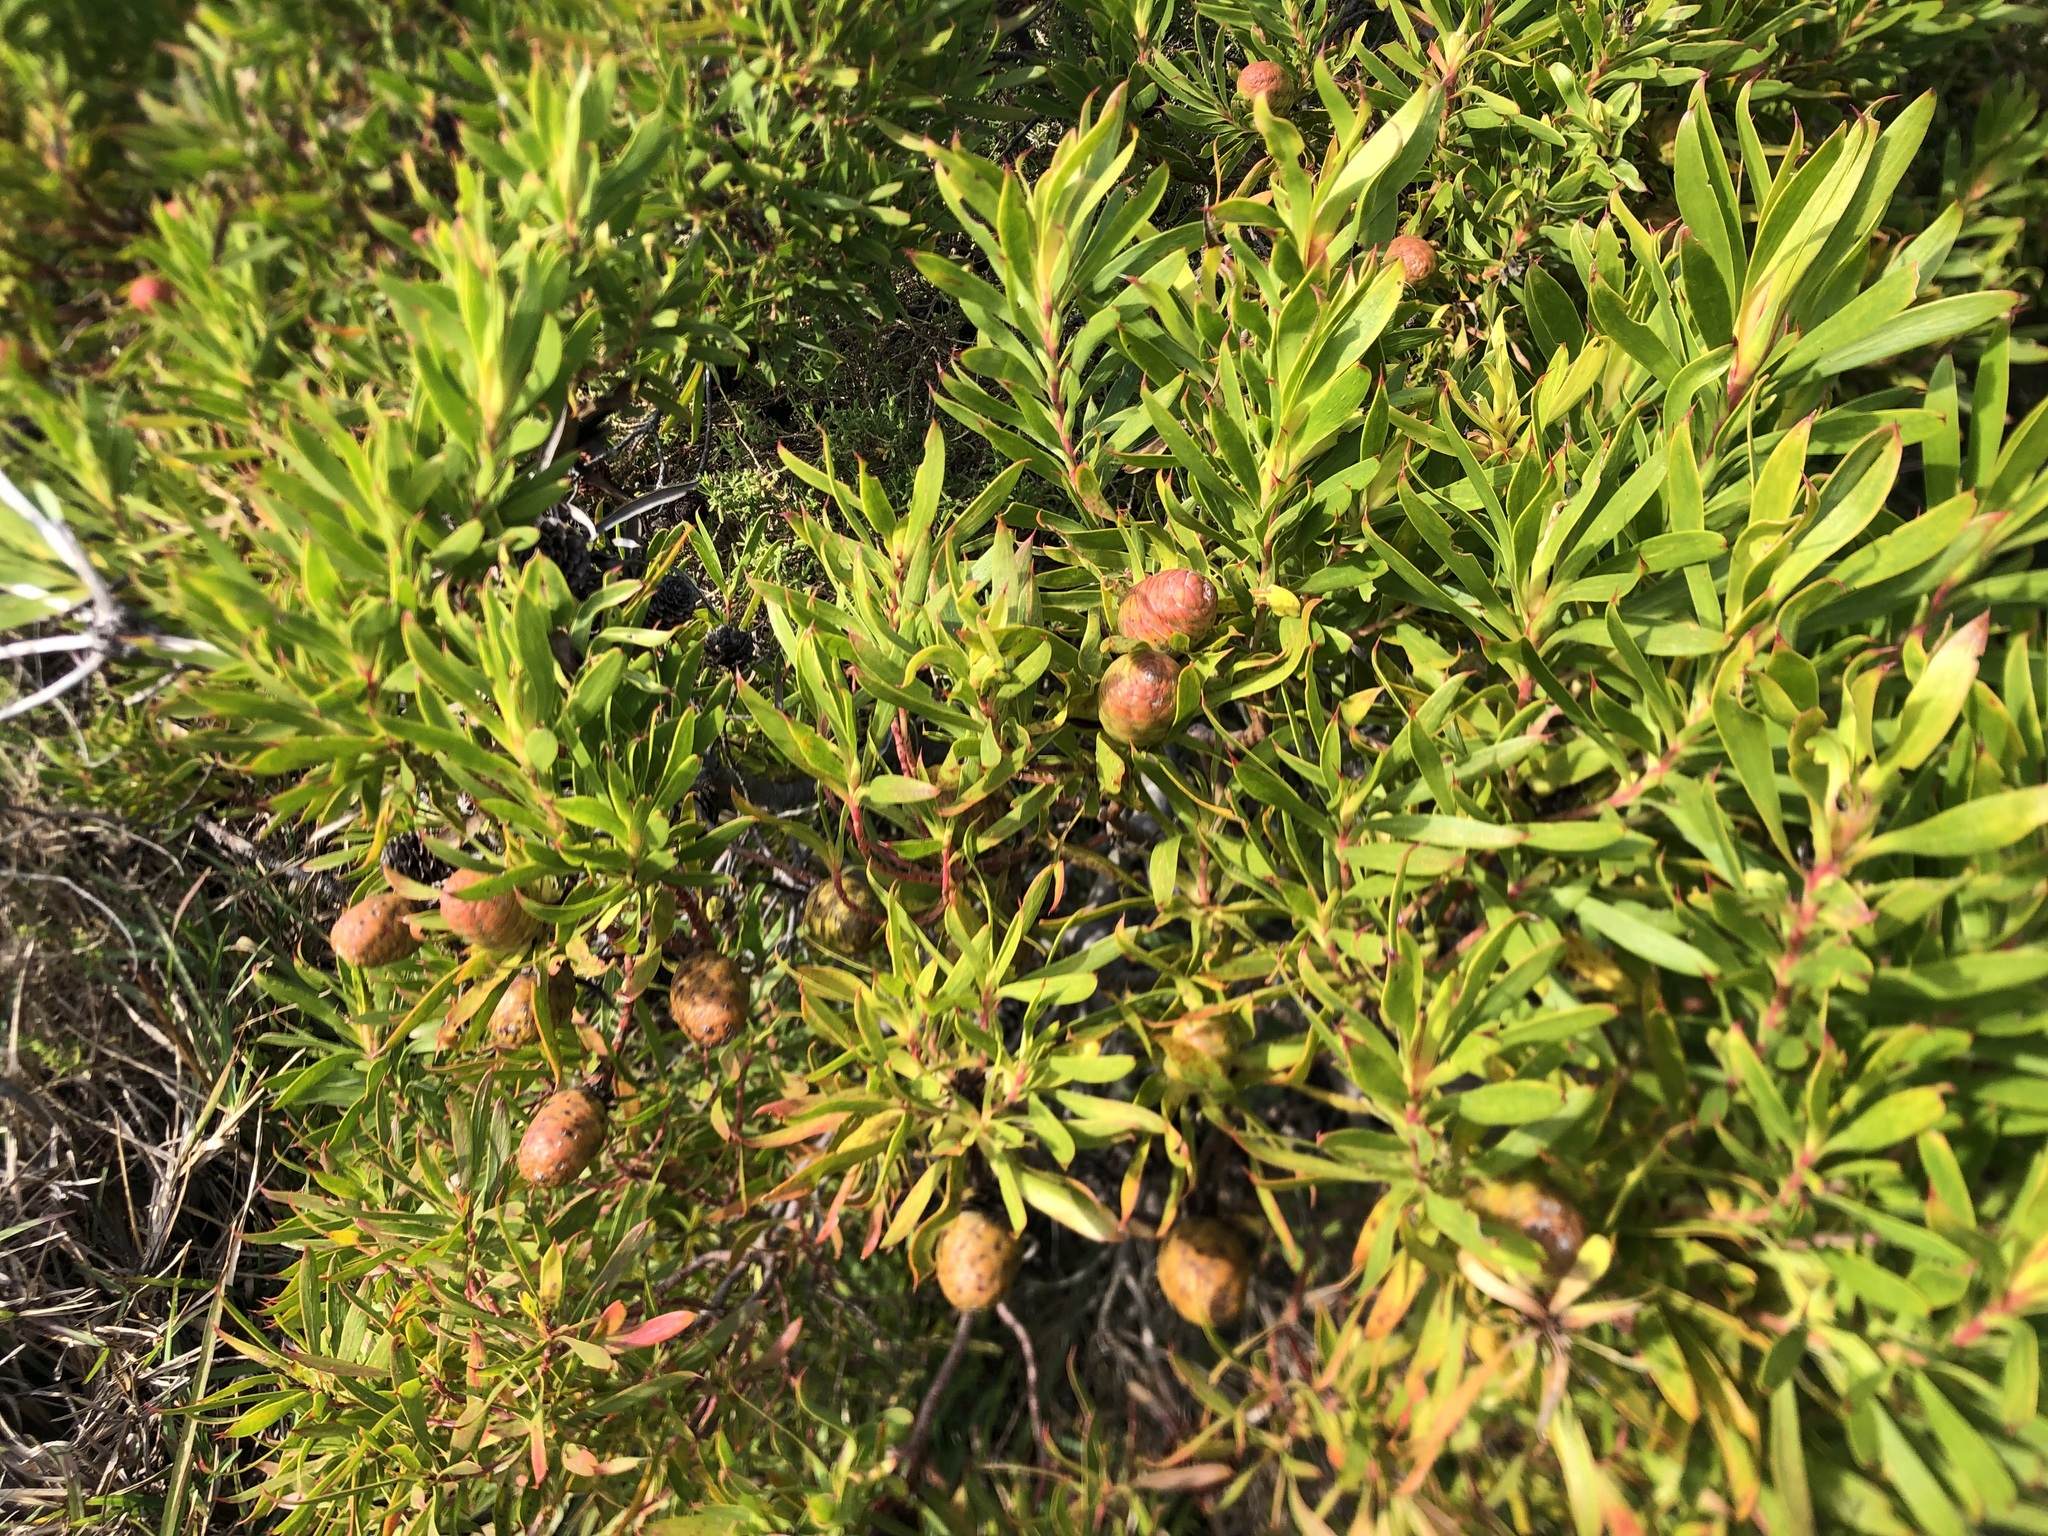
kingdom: Plantae
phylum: Tracheophyta
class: Magnoliopsida
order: Proteales
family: Proteaceae
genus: Leucadendron
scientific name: Leucadendron coniferum
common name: Dune conebush
